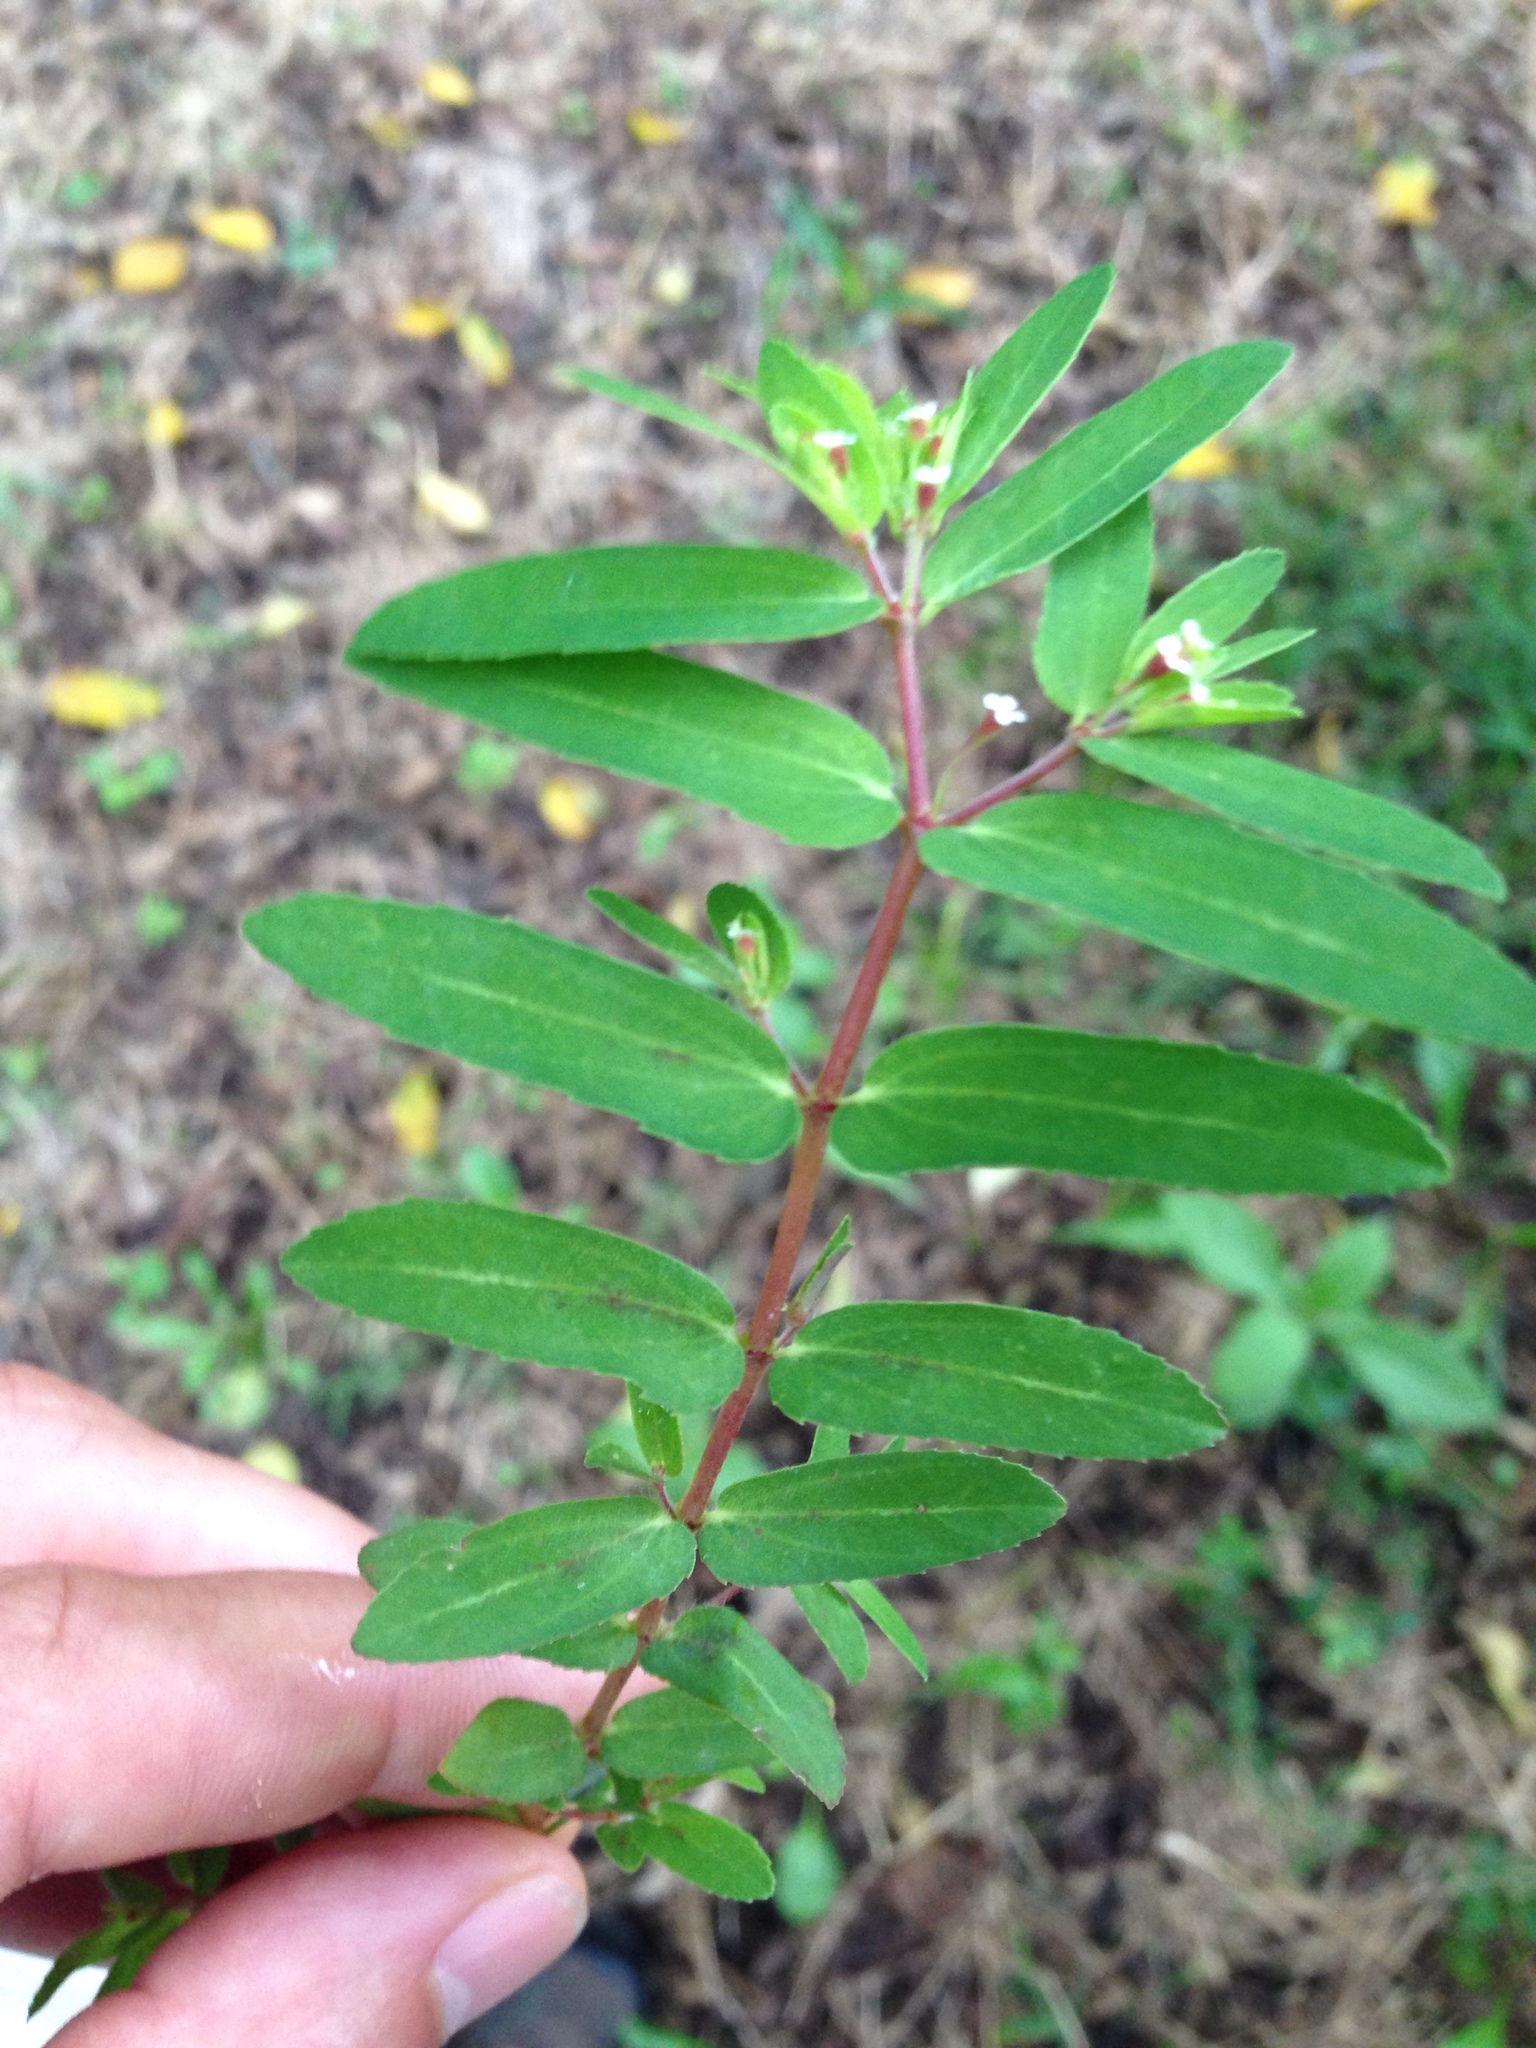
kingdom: Plantae
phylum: Tracheophyta
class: Magnoliopsida
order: Malpighiales
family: Euphorbiaceae
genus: Euphorbia
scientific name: Euphorbia nutans
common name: Eyebane
